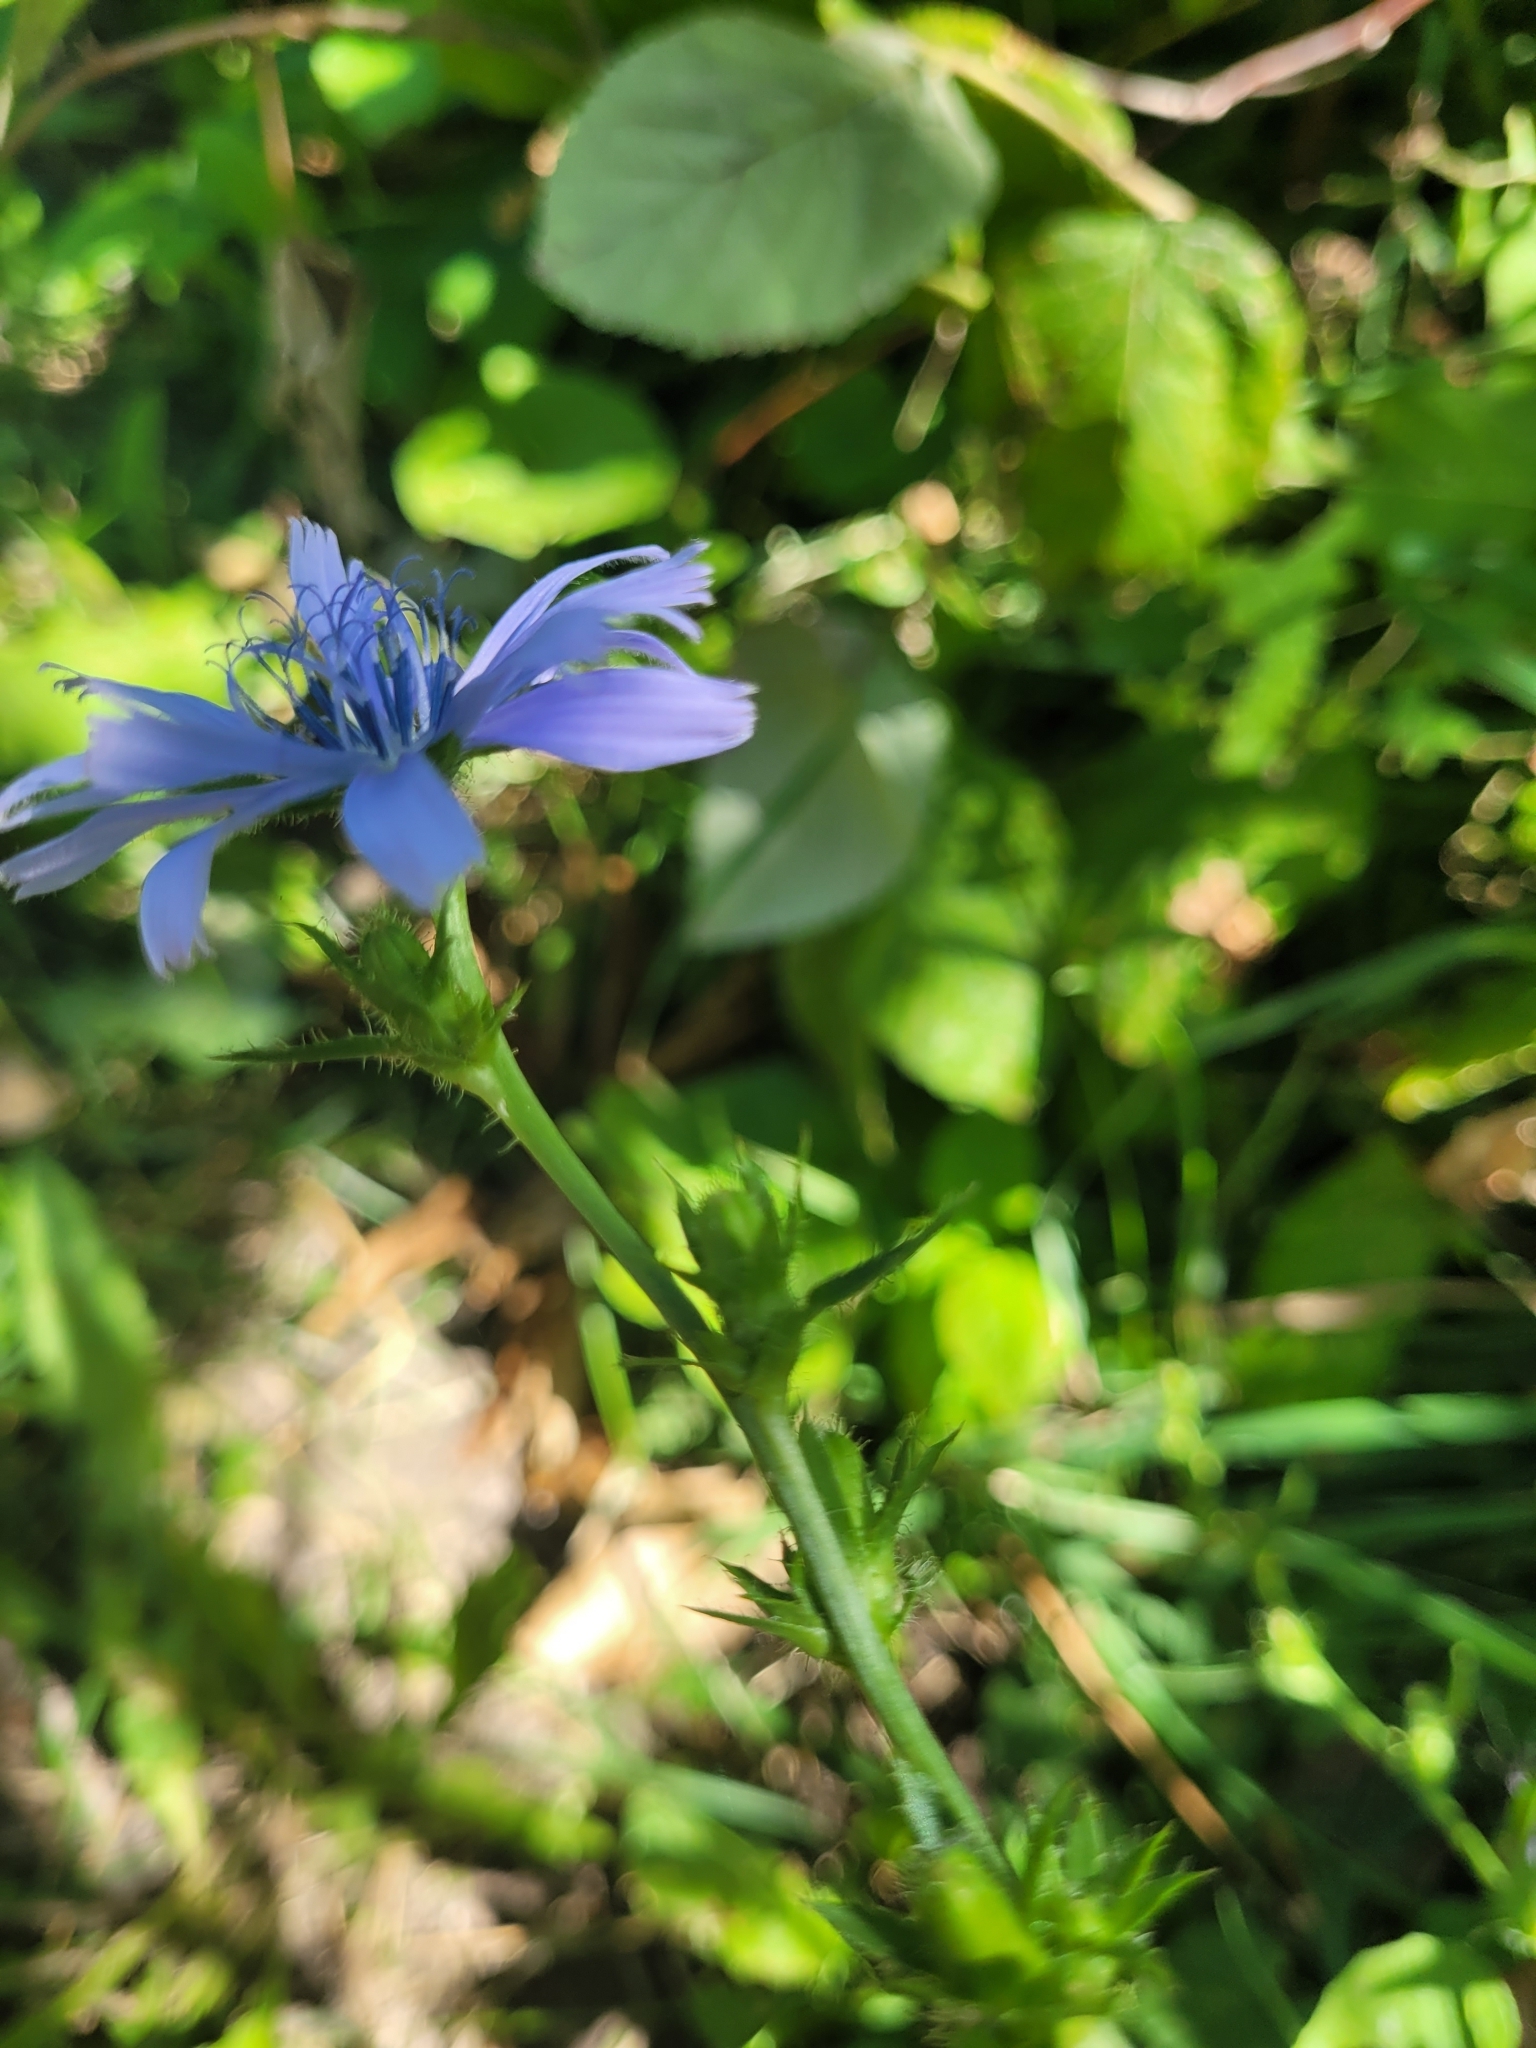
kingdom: Plantae
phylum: Tracheophyta
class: Magnoliopsida
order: Asterales
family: Asteraceae
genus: Cichorium
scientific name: Cichorium intybus
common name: Chicory
